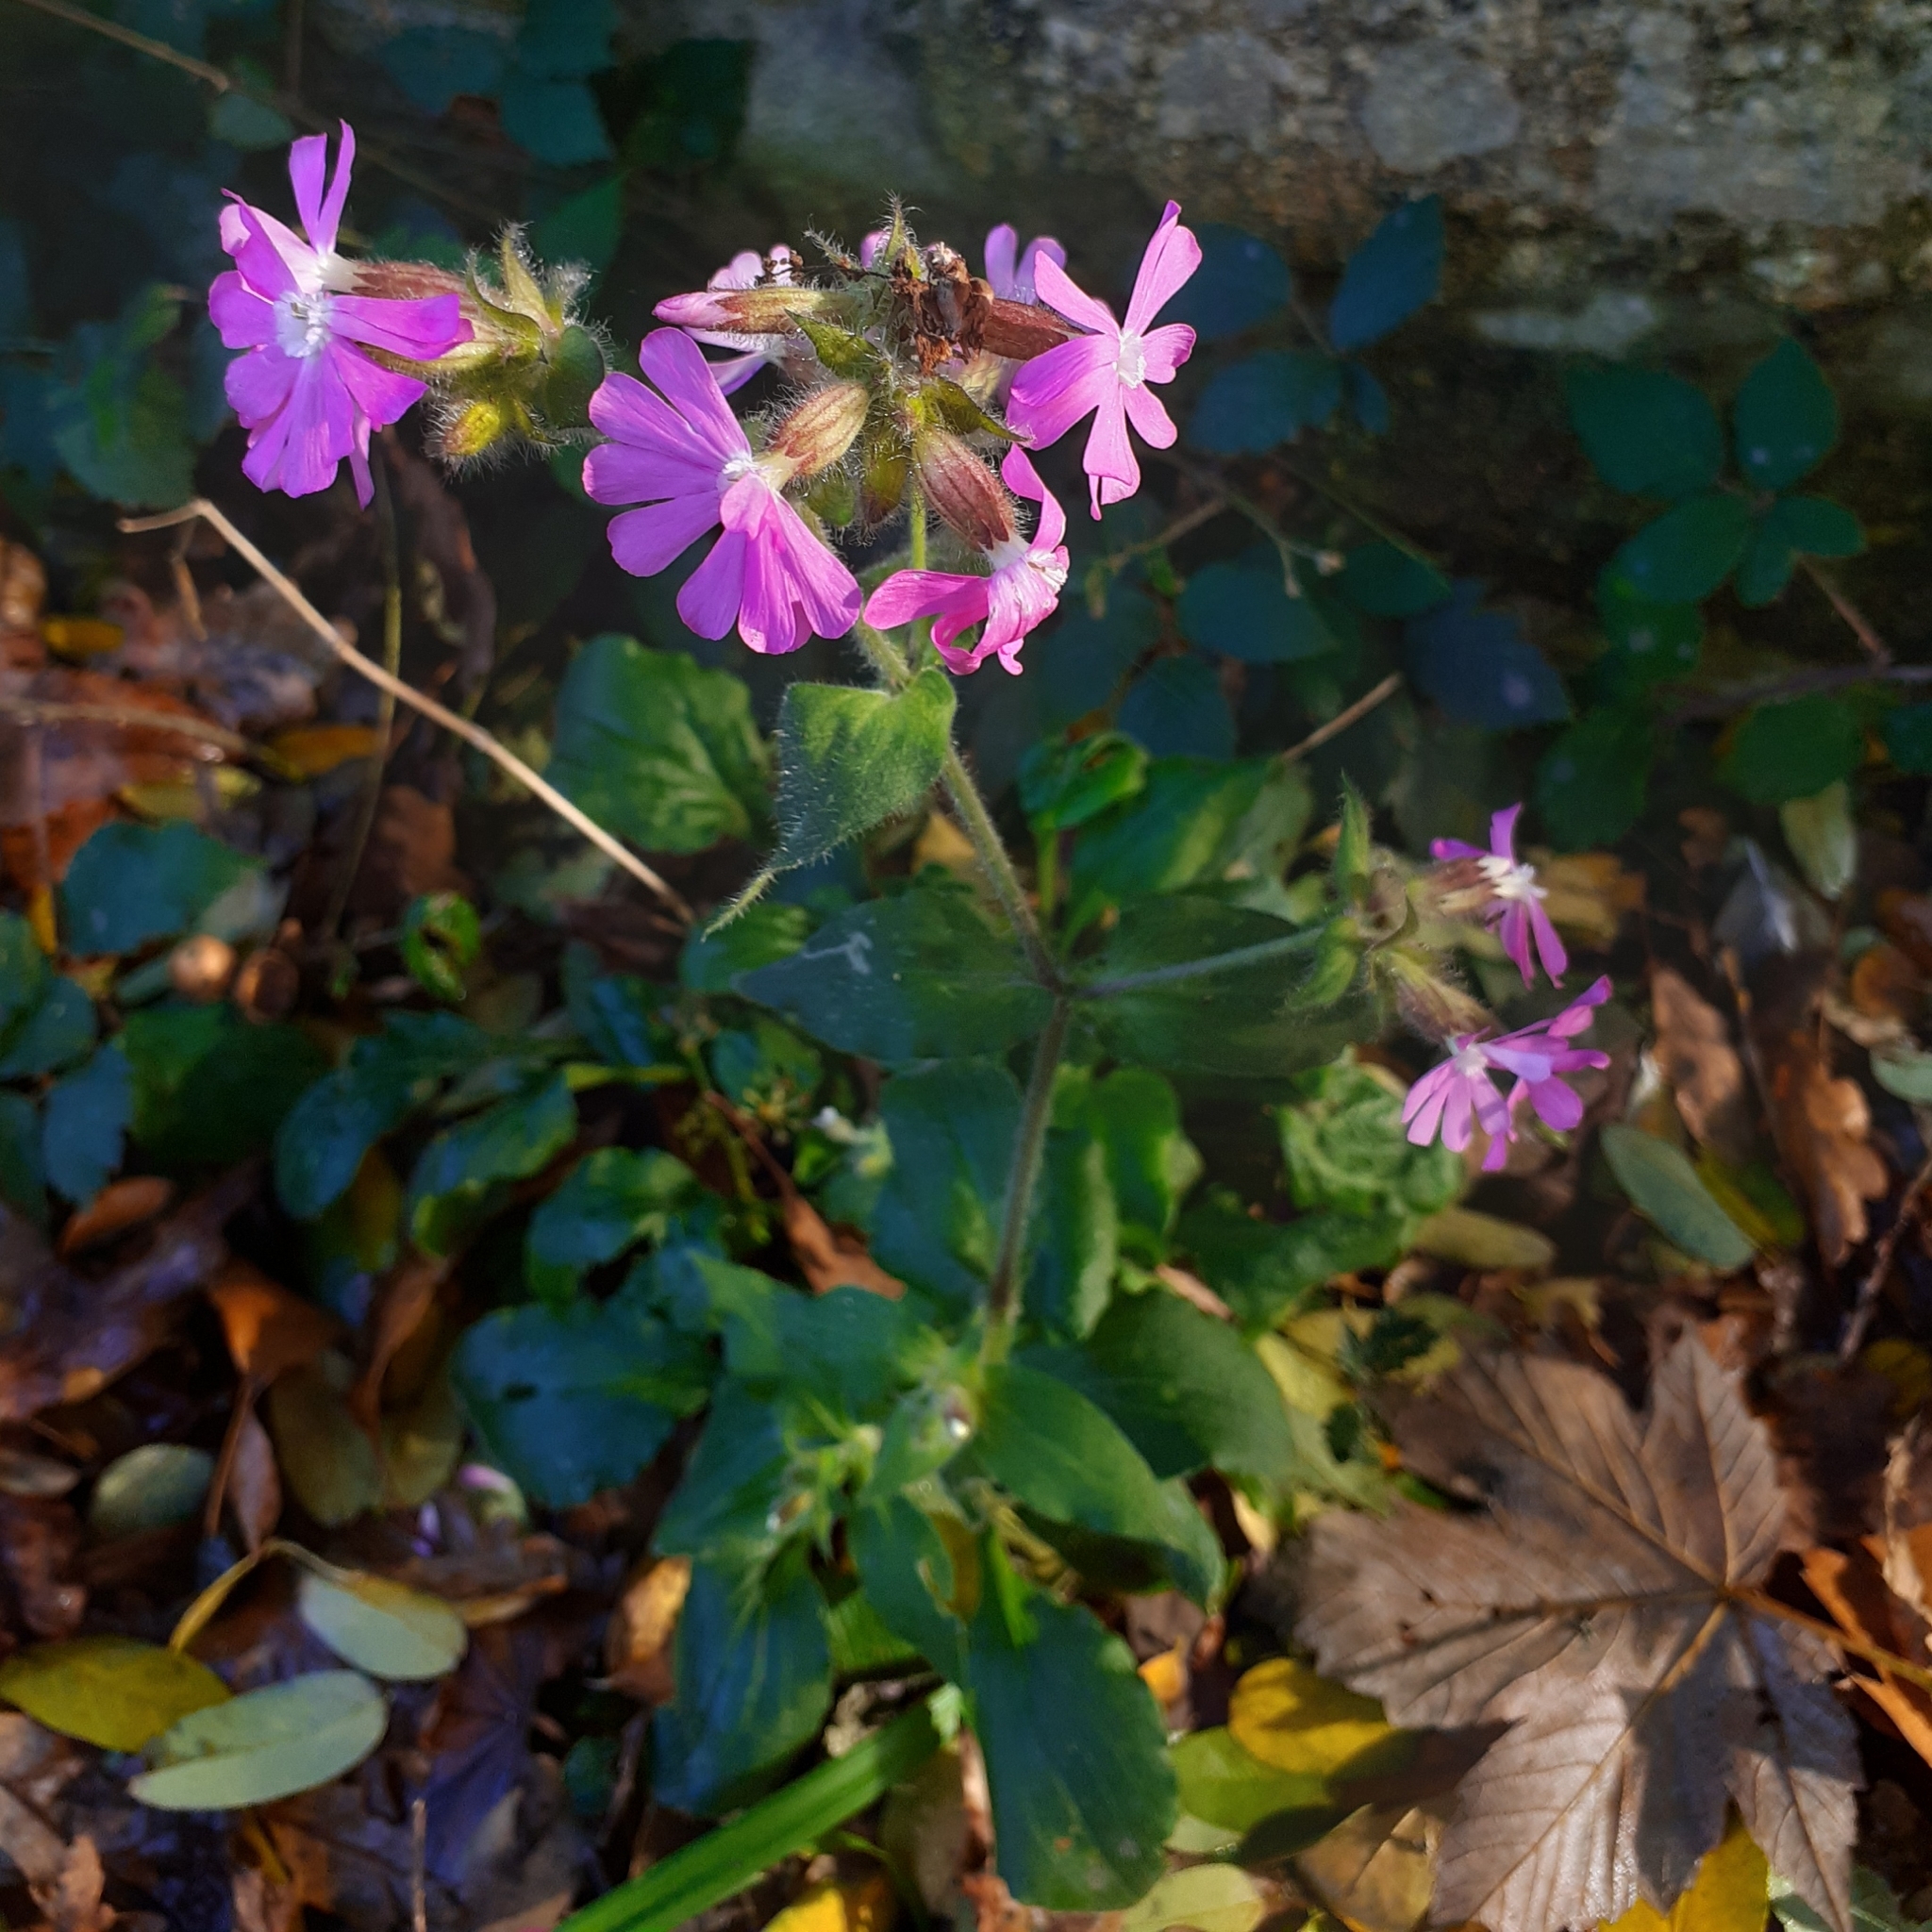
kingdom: Plantae
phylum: Tracheophyta
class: Magnoliopsida
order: Caryophyllales
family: Caryophyllaceae
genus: Silene
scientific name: Silene dioica
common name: Red campion
